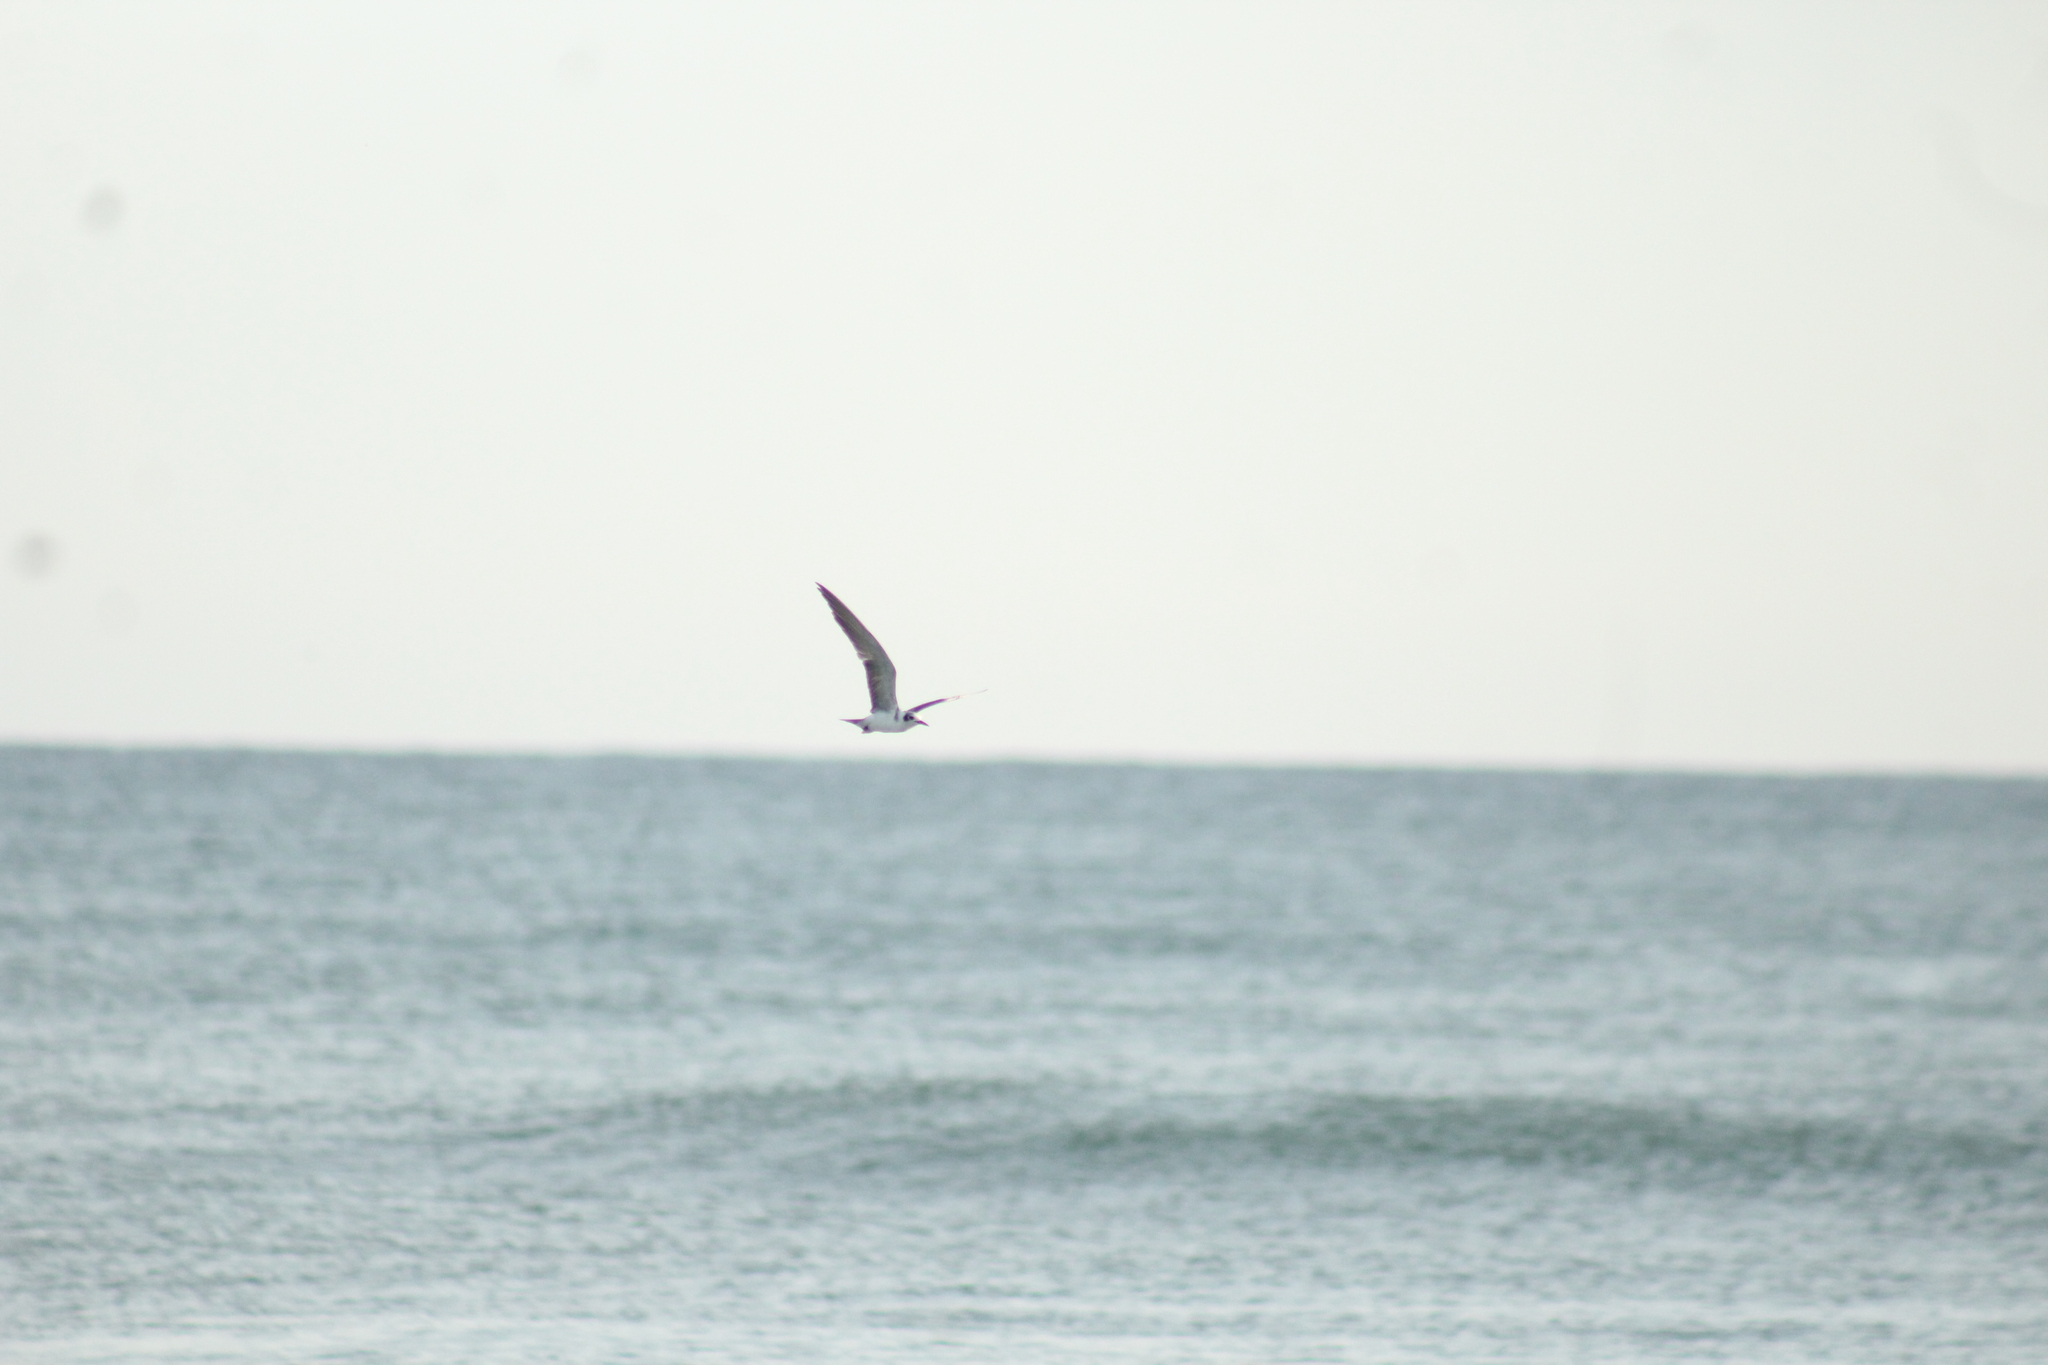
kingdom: Animalia
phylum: Chordata
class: Aves
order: Charadriiformes
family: Laridae
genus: Chlidonias
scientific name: Chlidonias niger
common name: Black tern
